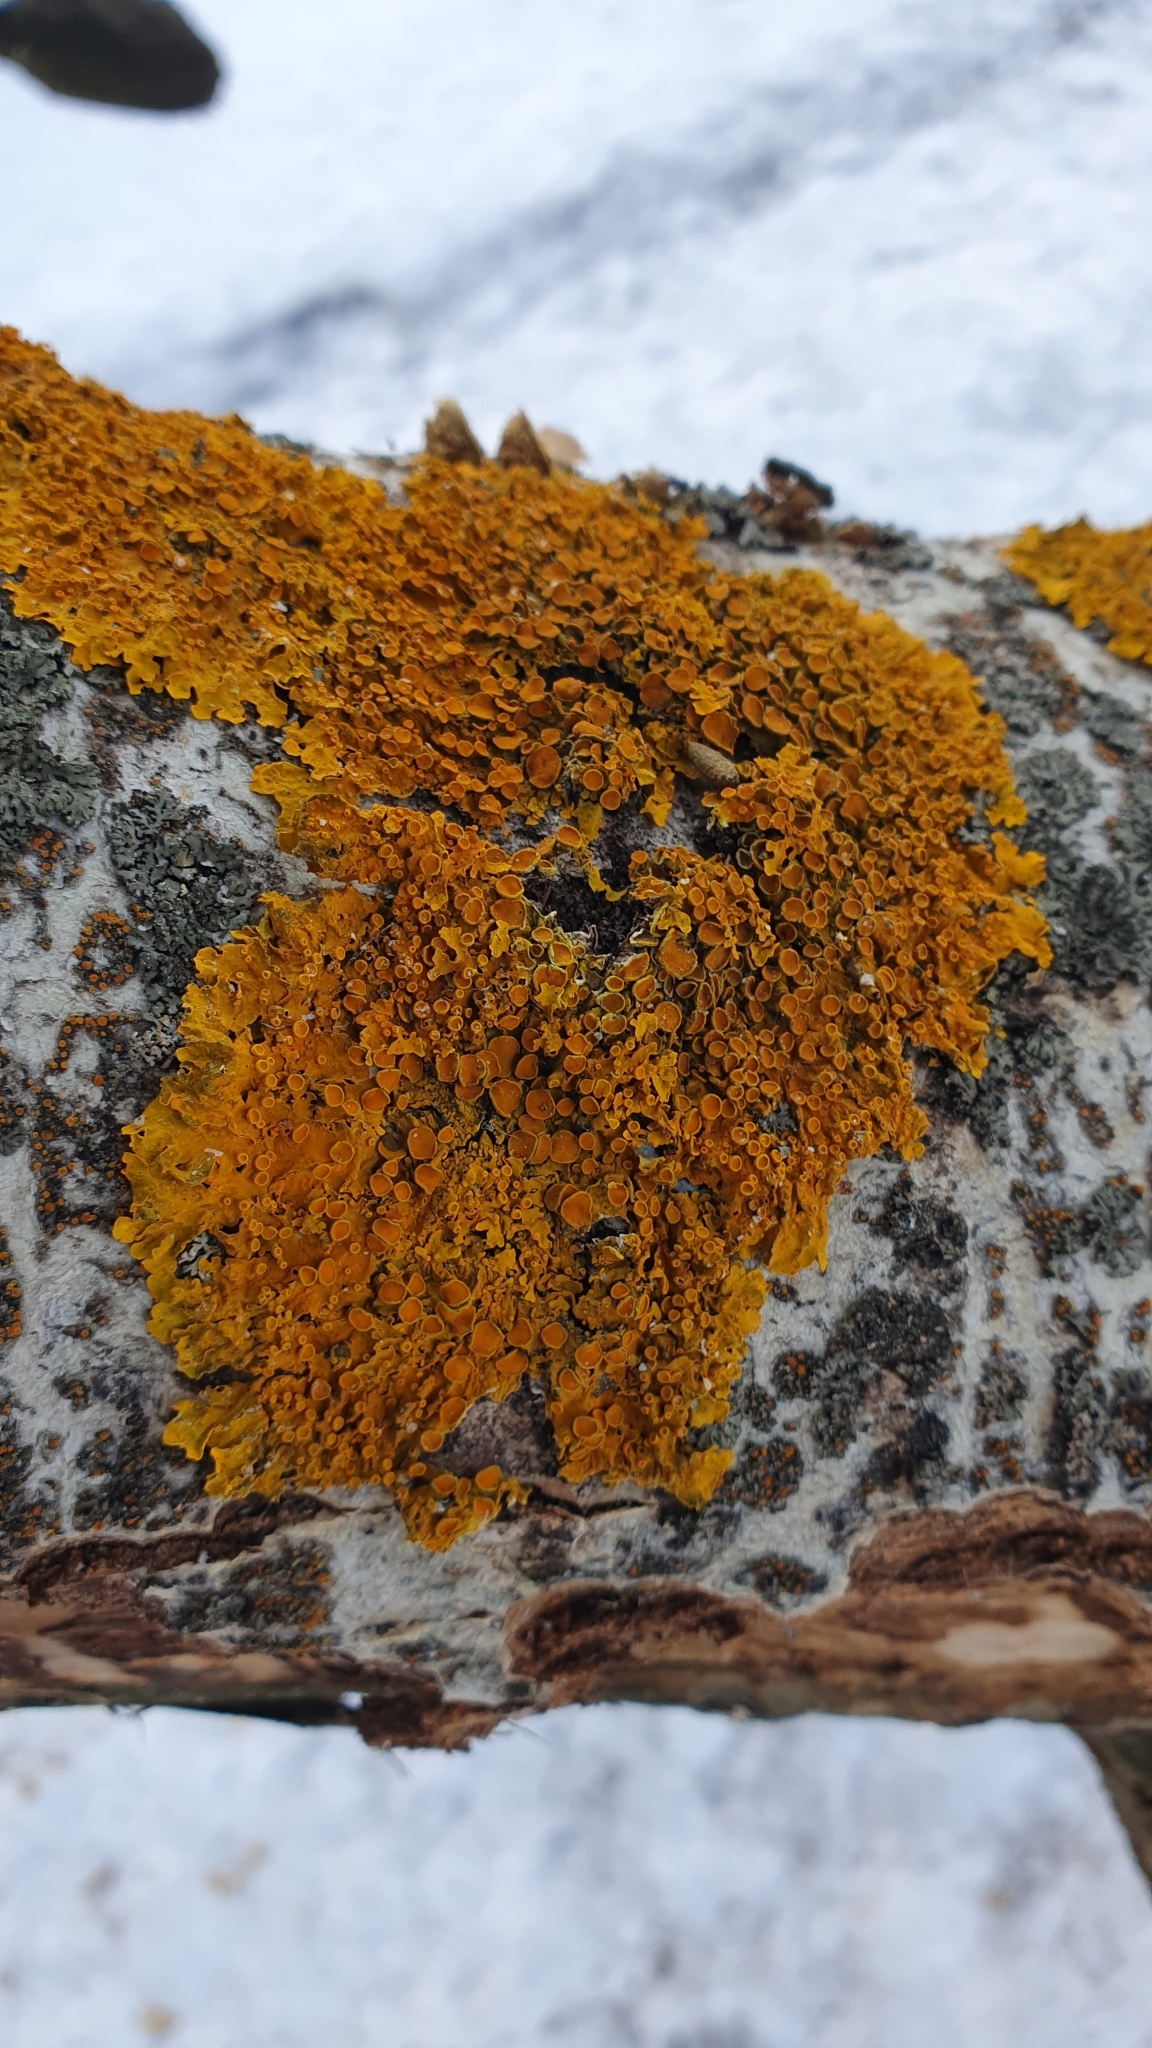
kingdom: Fungi
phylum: Ascomycota
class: Lecanoromycetes
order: Teloschistales
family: Teloschistaceae
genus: Xanthoria
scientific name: Xanthoria parietina
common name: Common orange lichen
